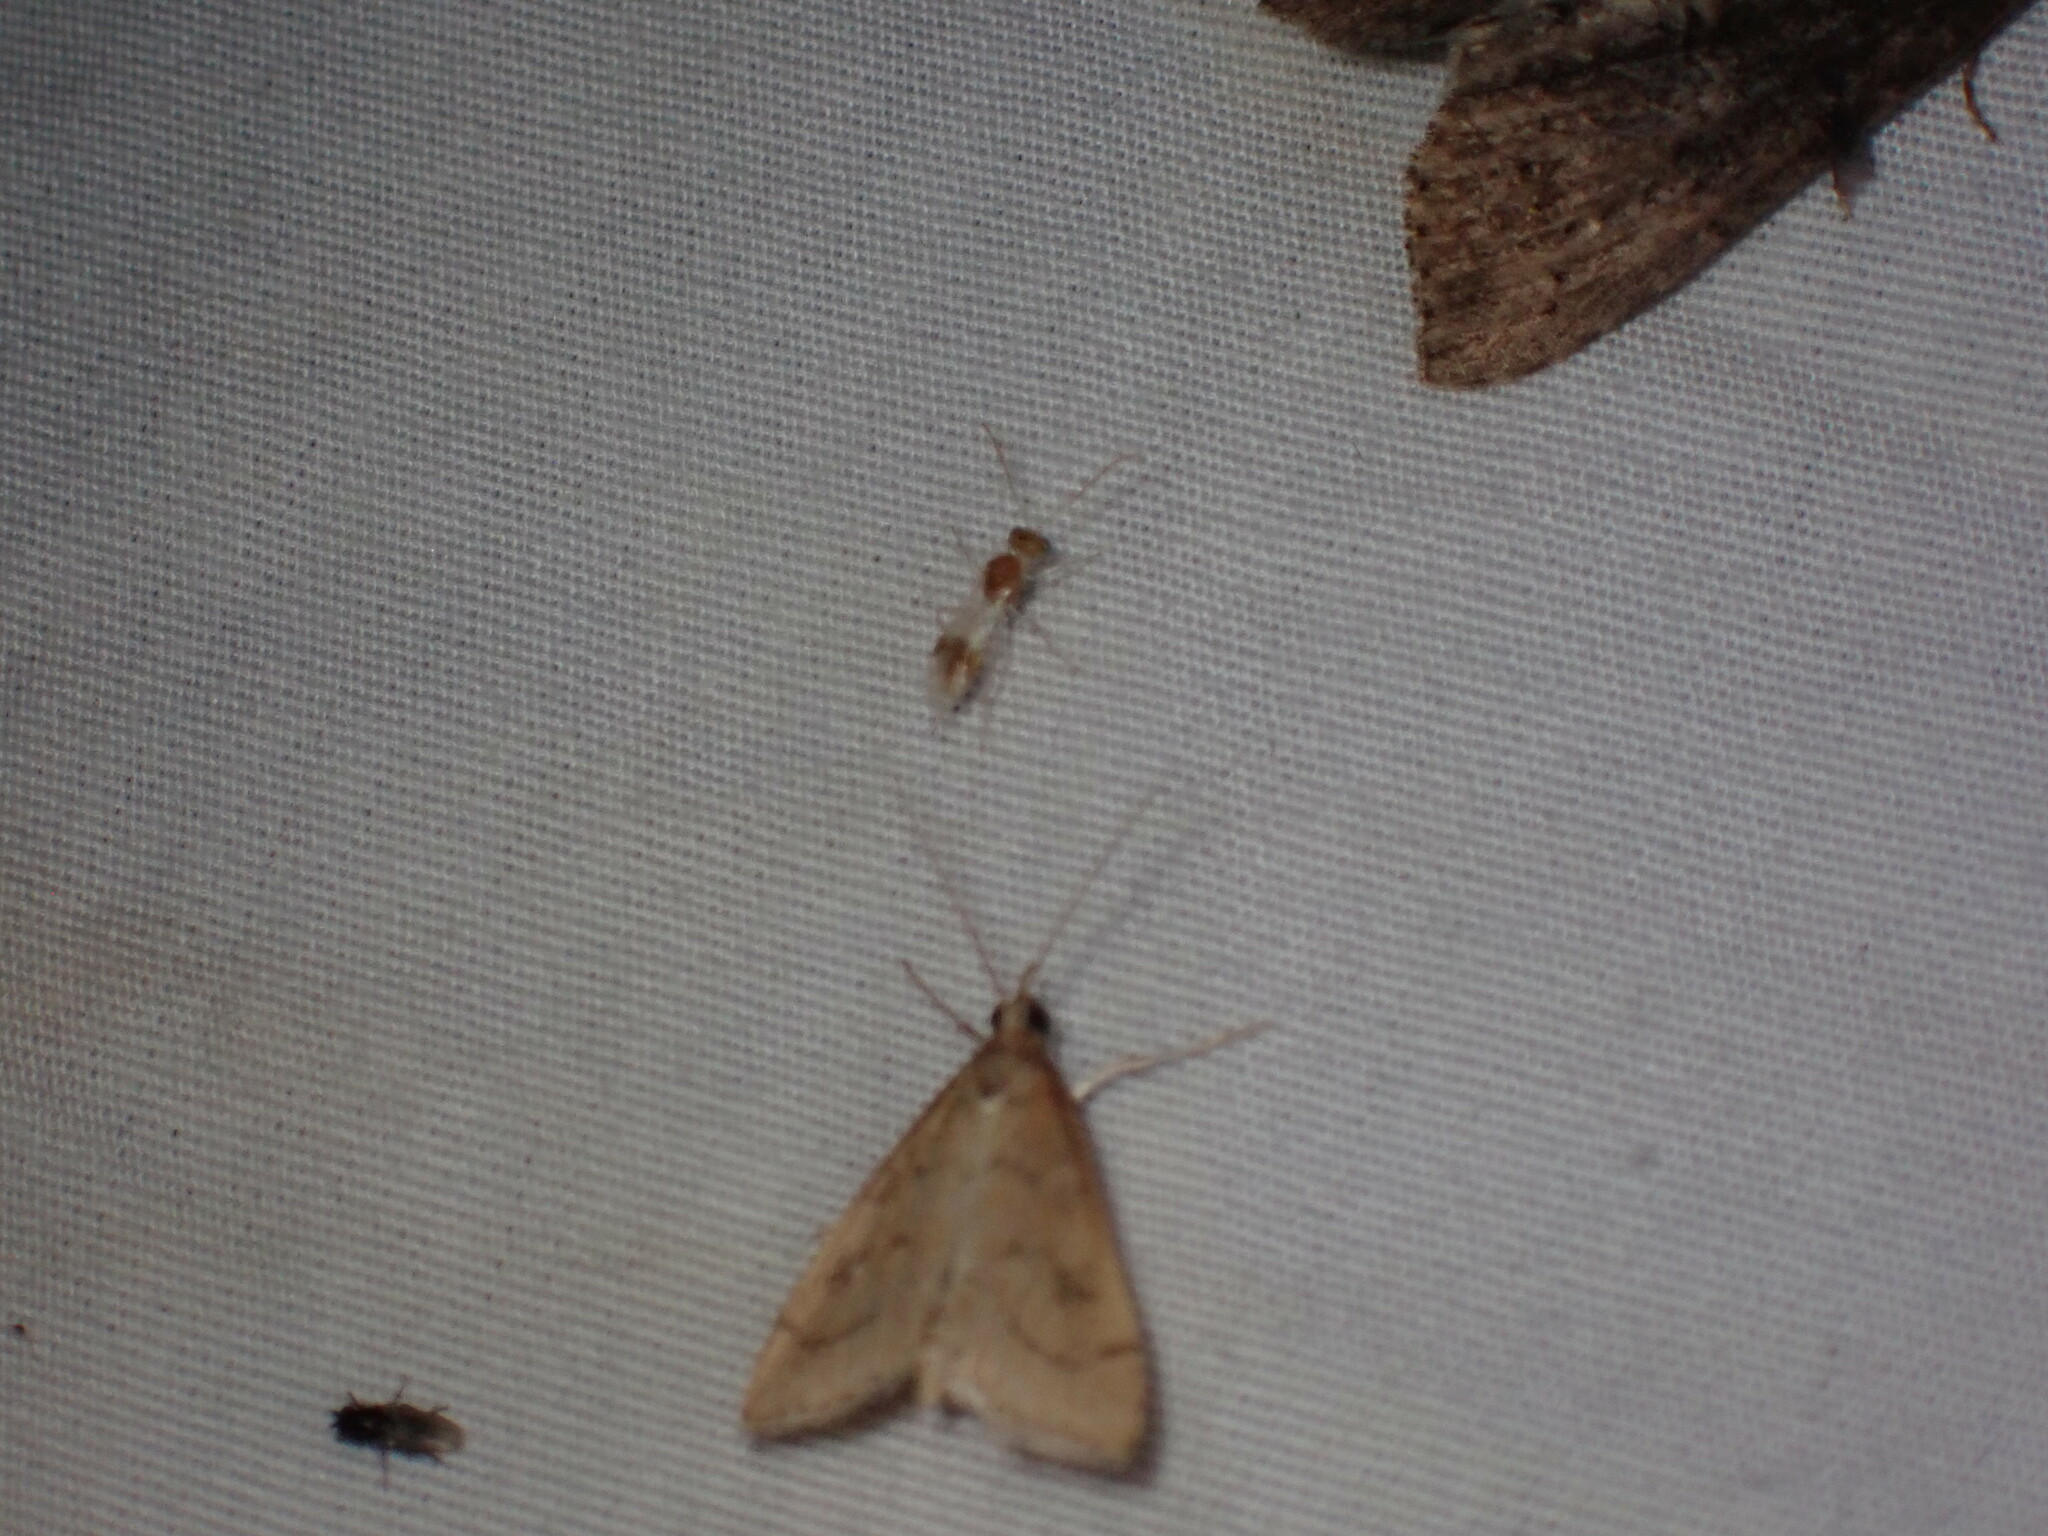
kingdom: Animalia
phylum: Arthropoda
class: Insecta
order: Lepidoptera
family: Crambidae
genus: Udea
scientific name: Udea rubigalis
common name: Celery leaftier moth
